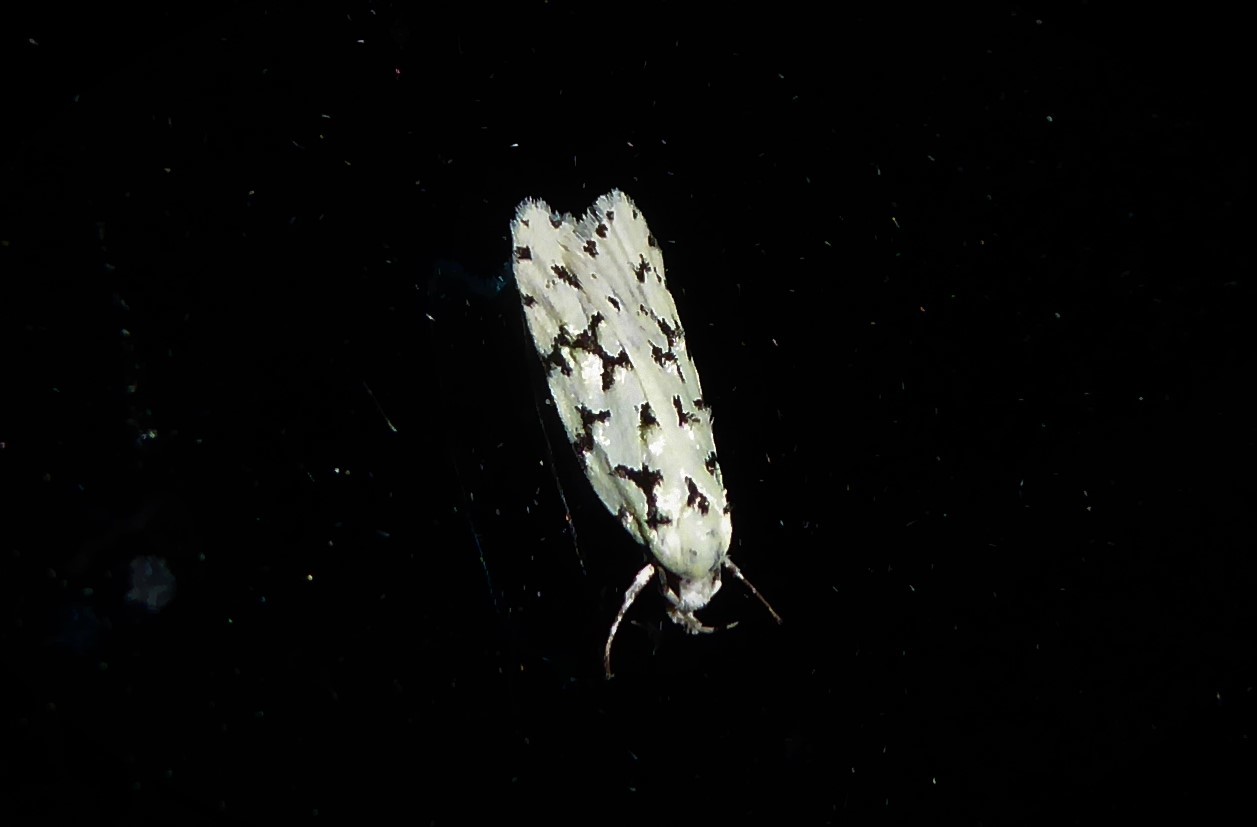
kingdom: Animalia
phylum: Arthropoda
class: Insecta
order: Lepidoptera
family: Oecophoridae
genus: Izatha
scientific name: Izatha huttoni
